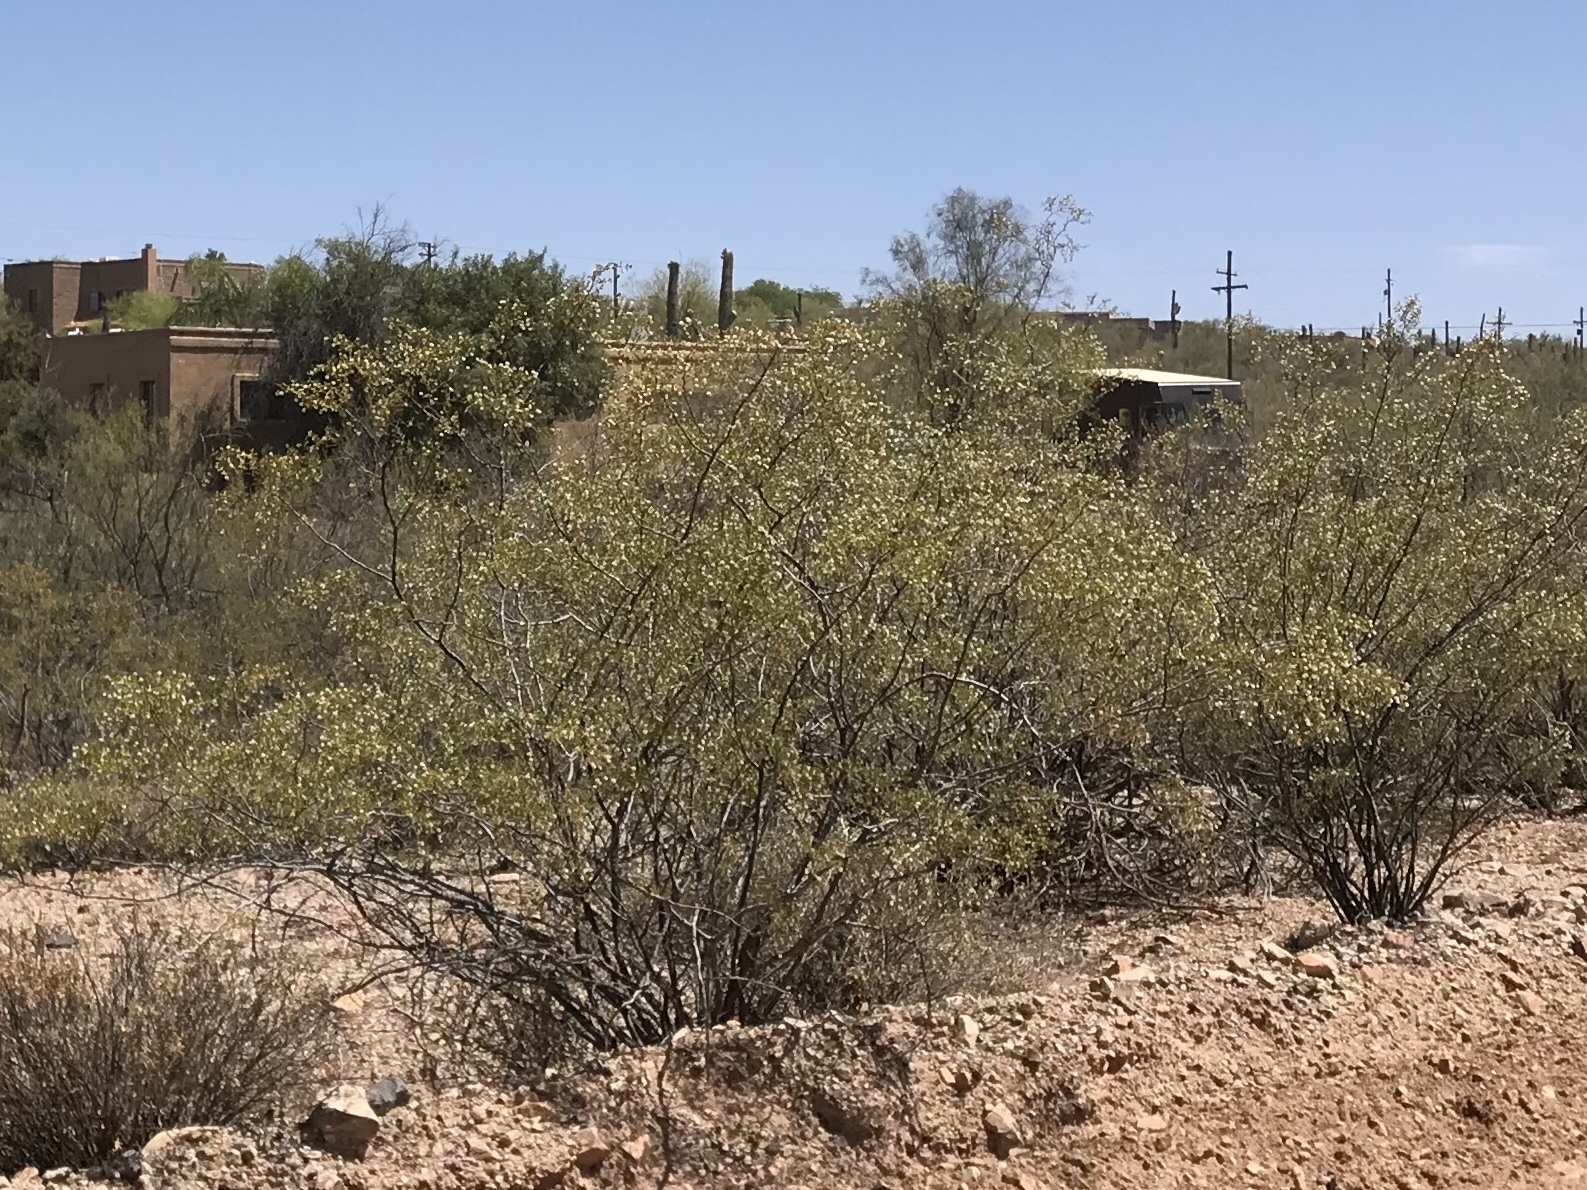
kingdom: Plantae
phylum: Tracheophyta
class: Magnoliopsida
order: Zygophyllales
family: Zygophyllaceae
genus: Larrea
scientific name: Larrea tridentata
